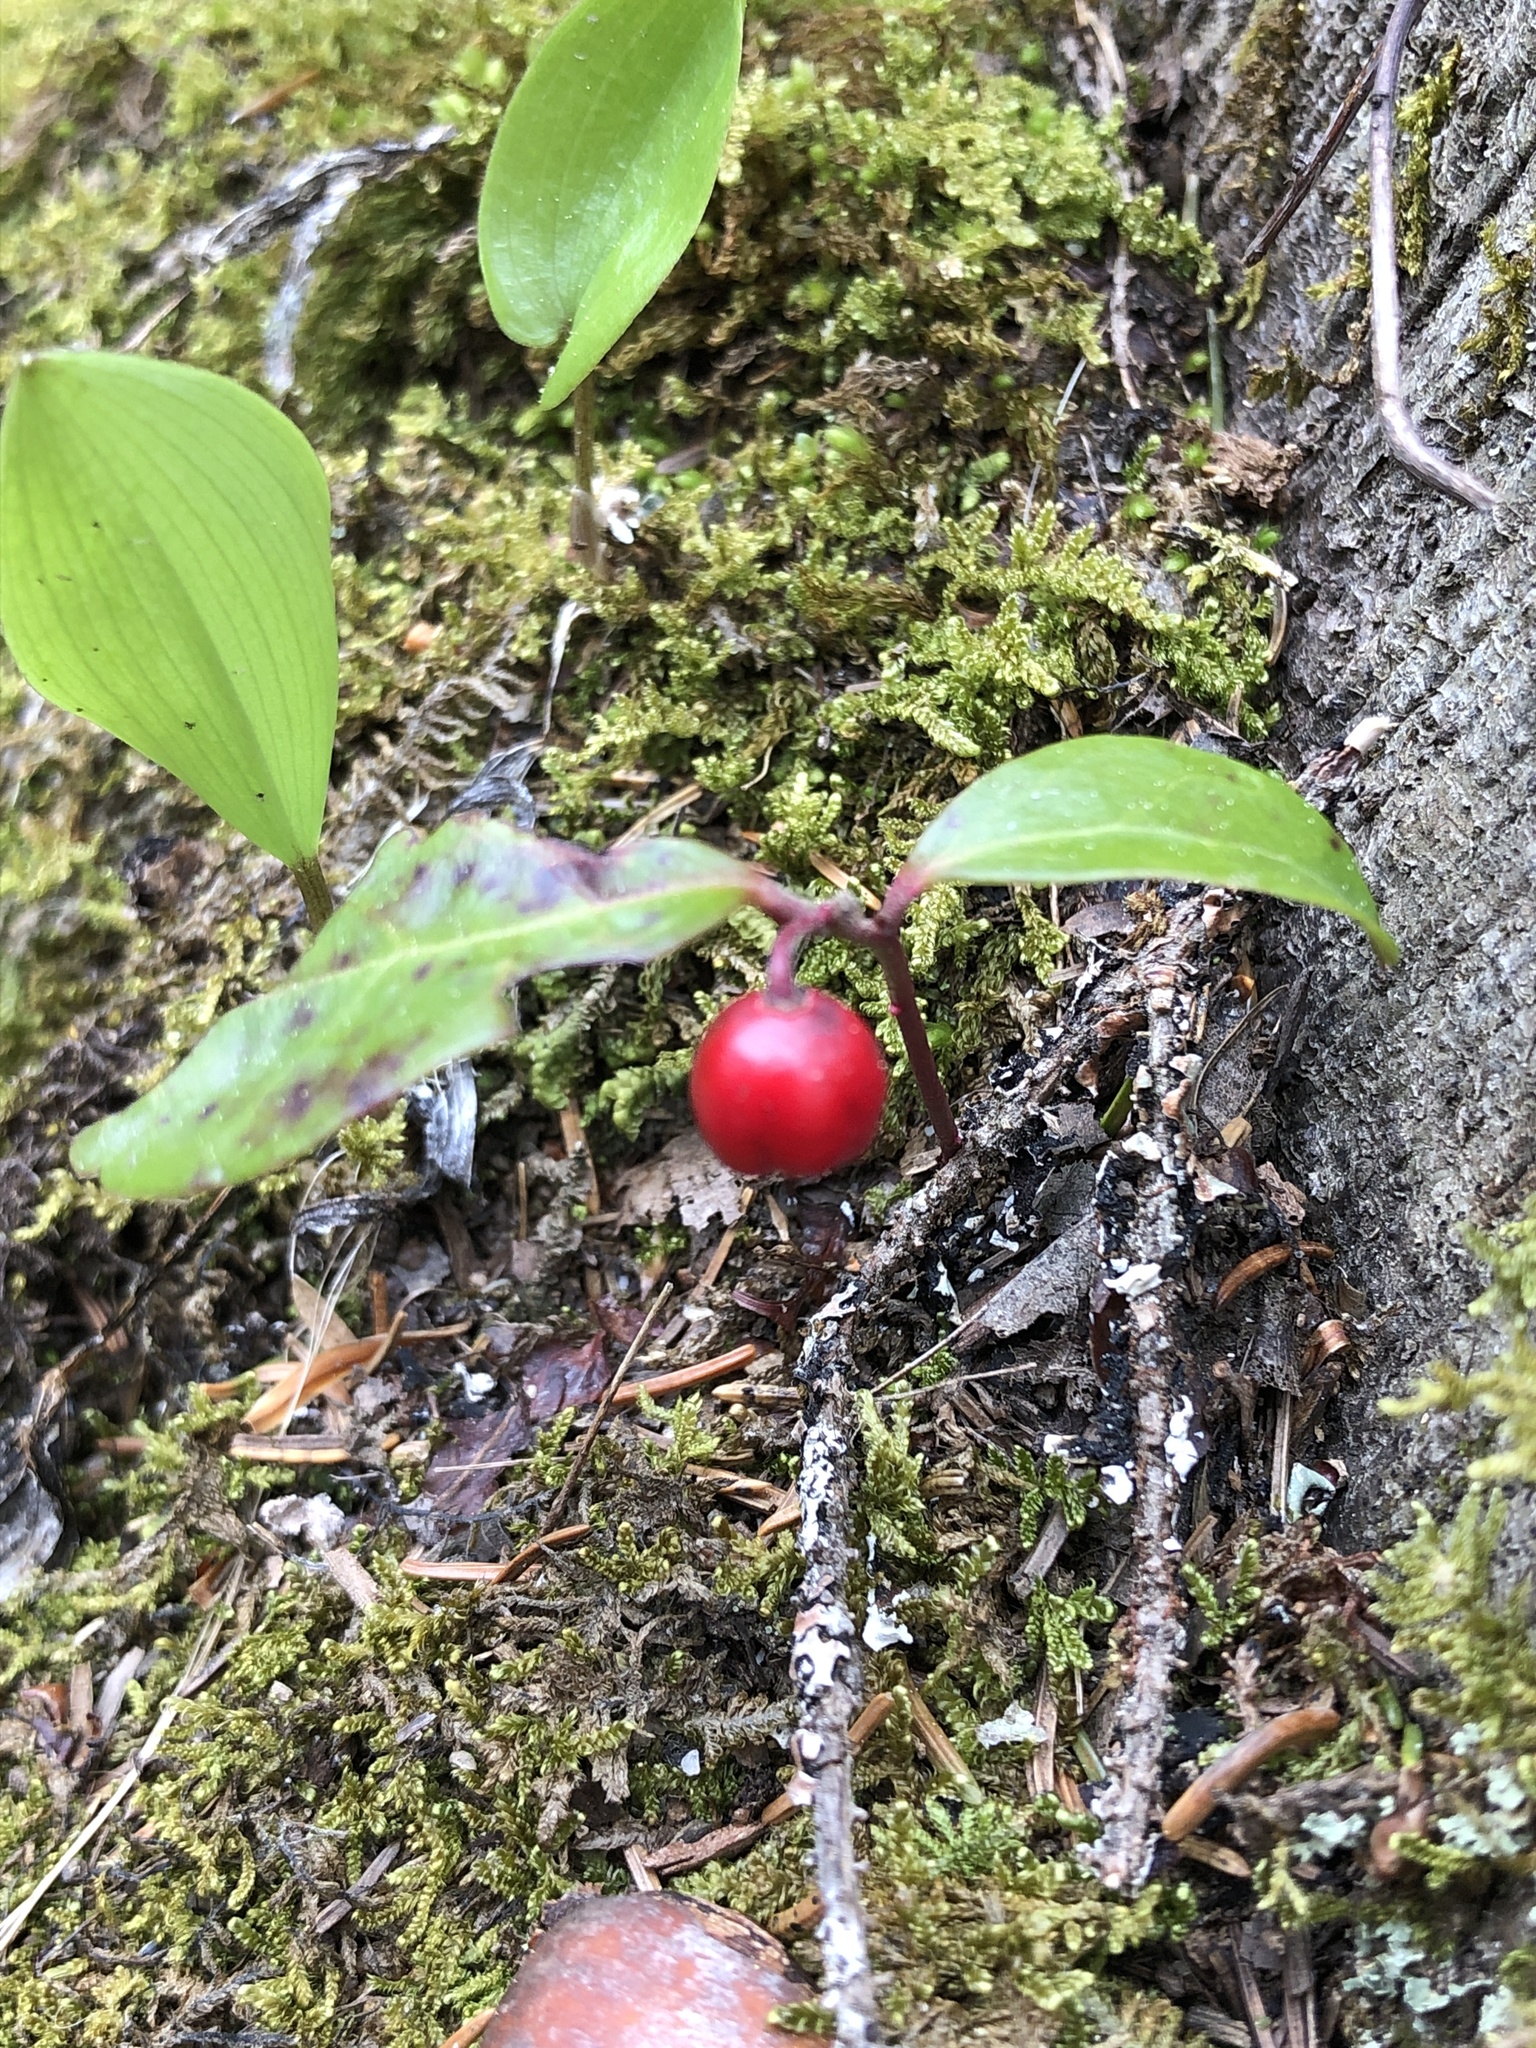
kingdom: Plantae
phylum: Tracheophyta
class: Magnoliopsida
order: Ericales
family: Ericaceae
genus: Gaultheria
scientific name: Gaultheria procumbens
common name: Checkerberry
